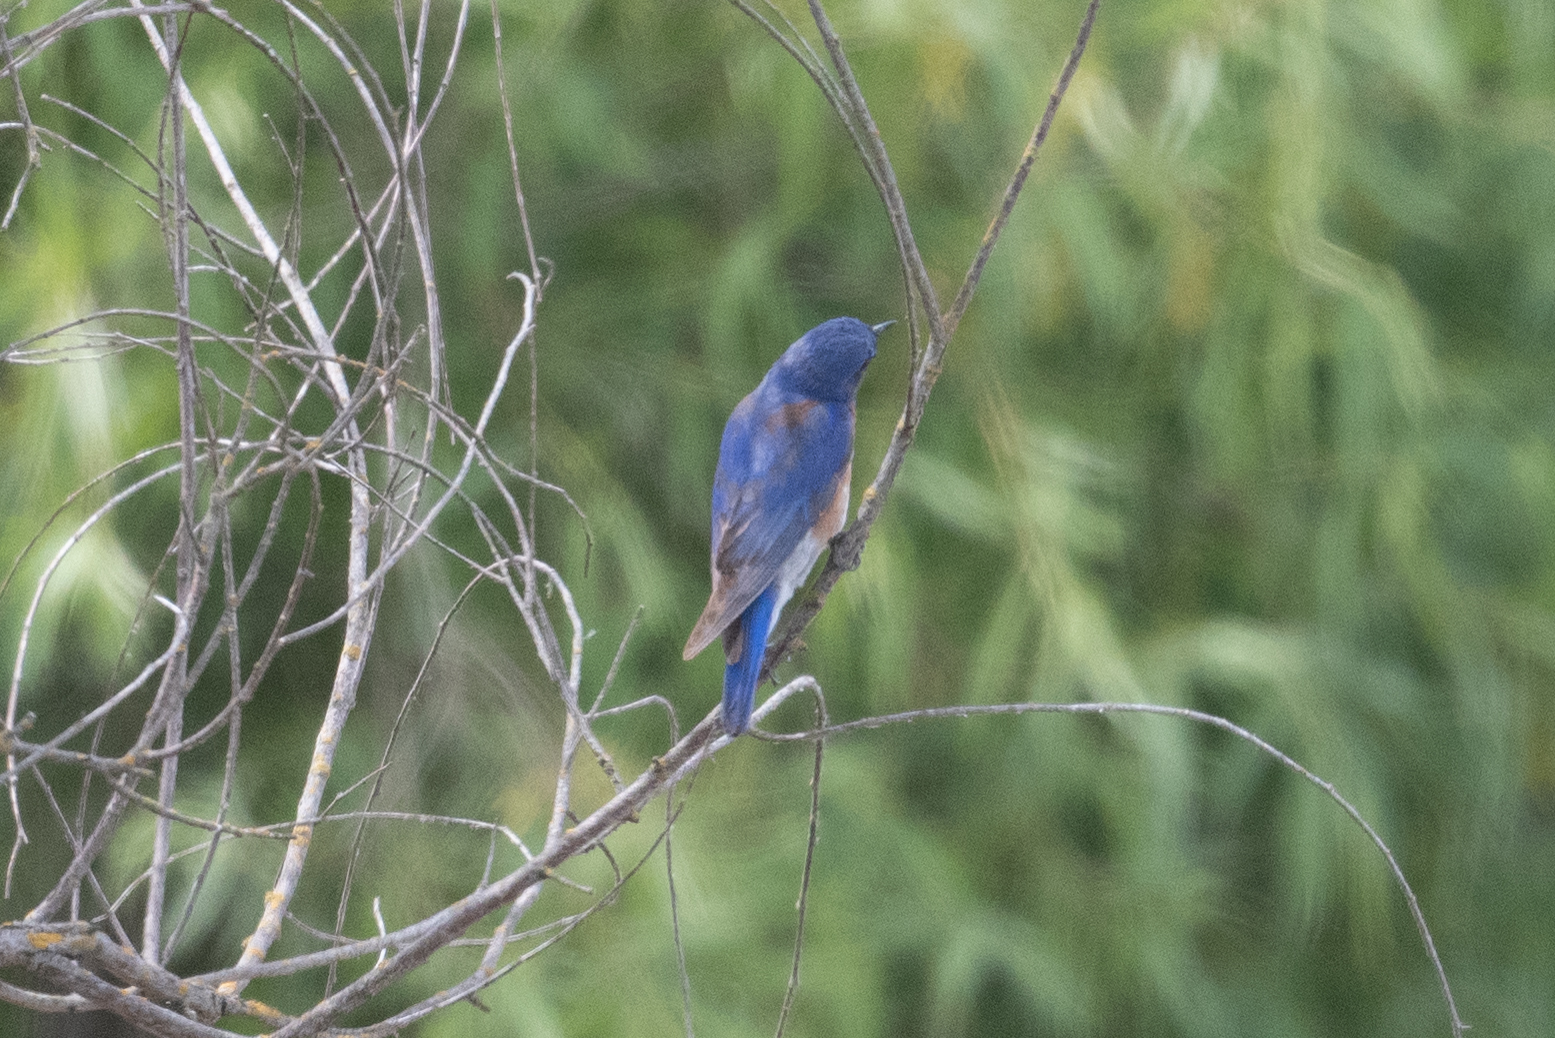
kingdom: Animalia
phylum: Chordata
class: Aves
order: Passeriformes
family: Turdidae
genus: Sialia
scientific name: Sialia mexicana
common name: Western bluebird
